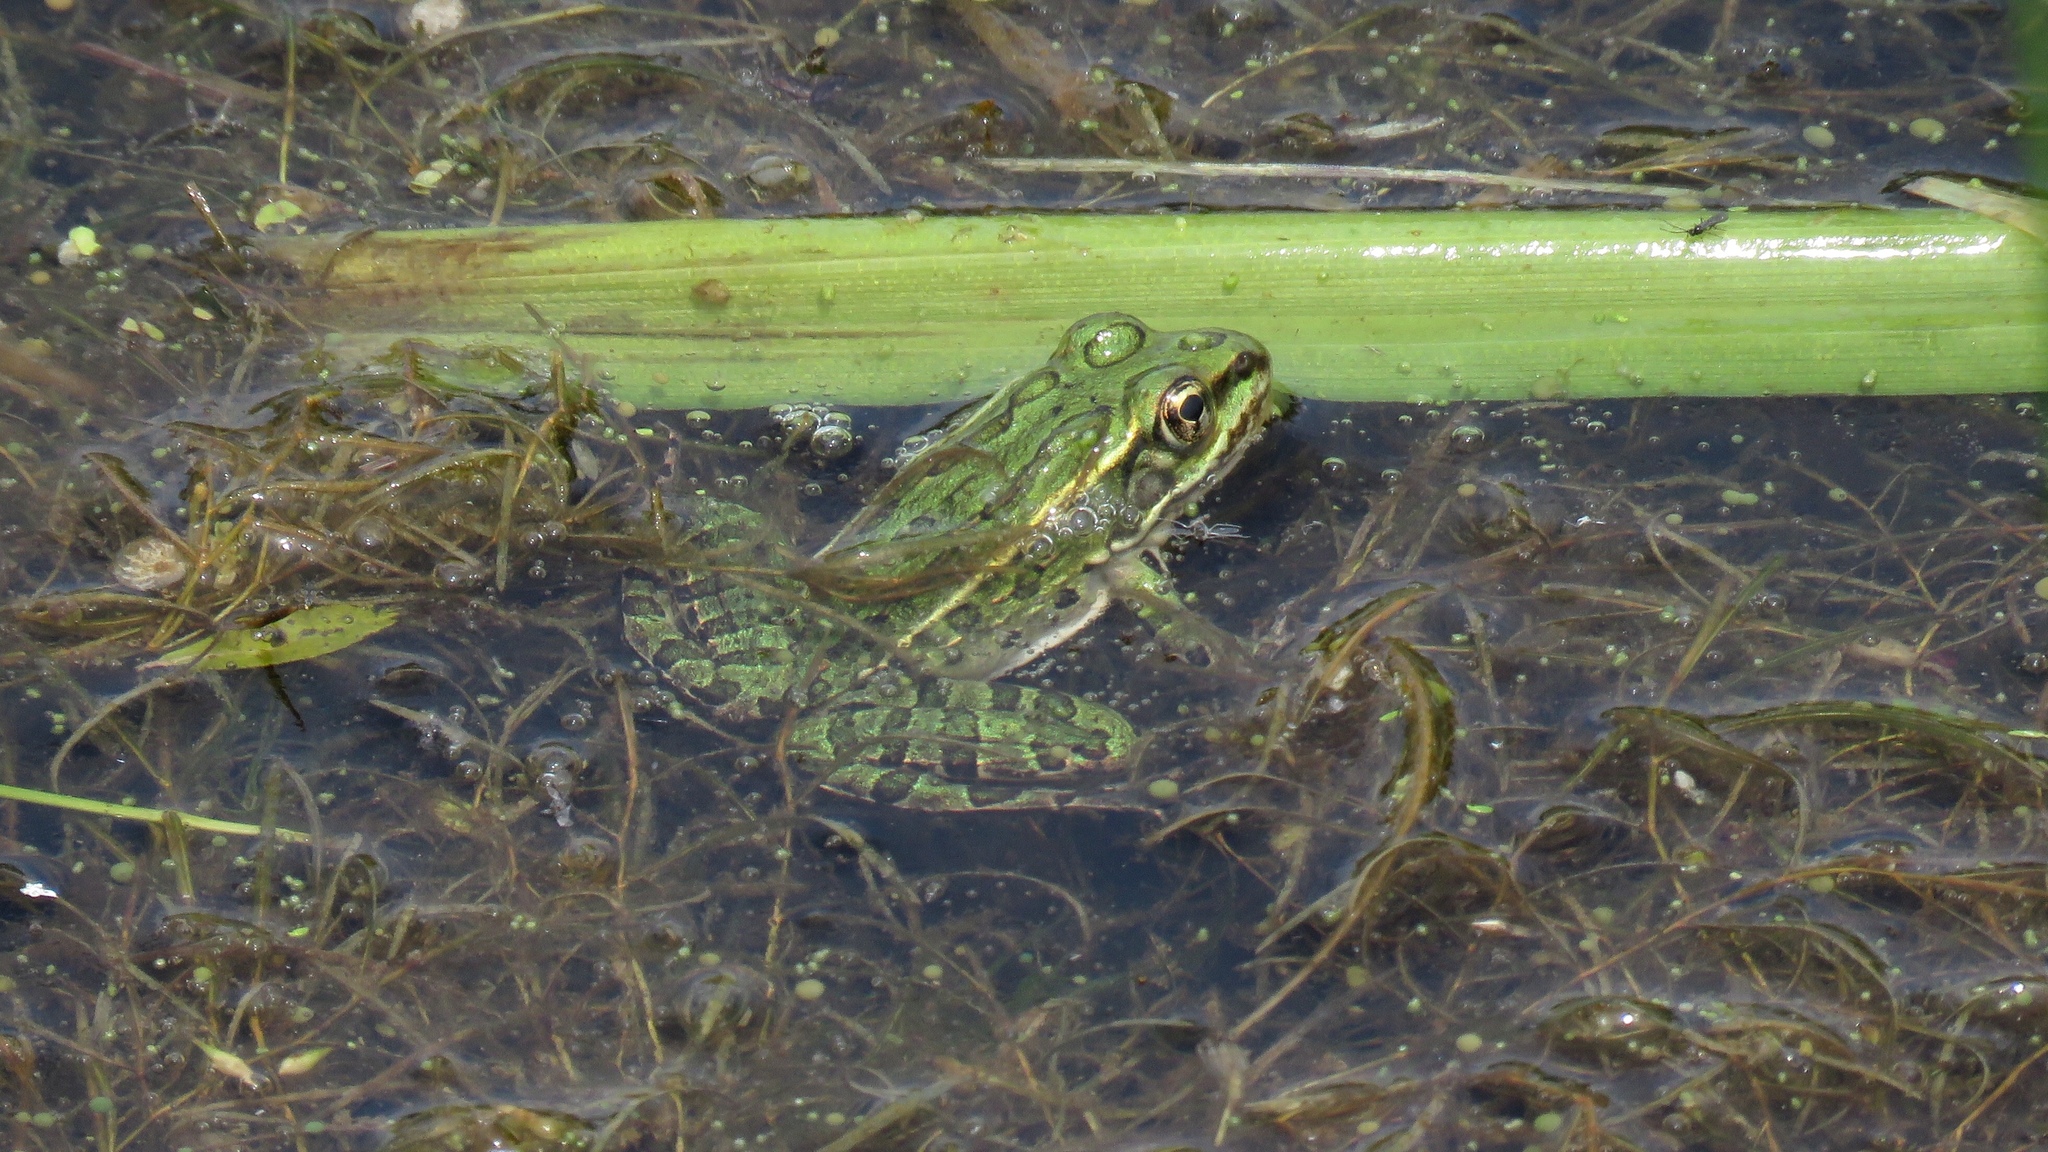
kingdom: Animalia
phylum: Chordata
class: Amphibia
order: Anura
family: Ranidae
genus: Lithobates
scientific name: Lithobates pipiens
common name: Northern leopard frog
